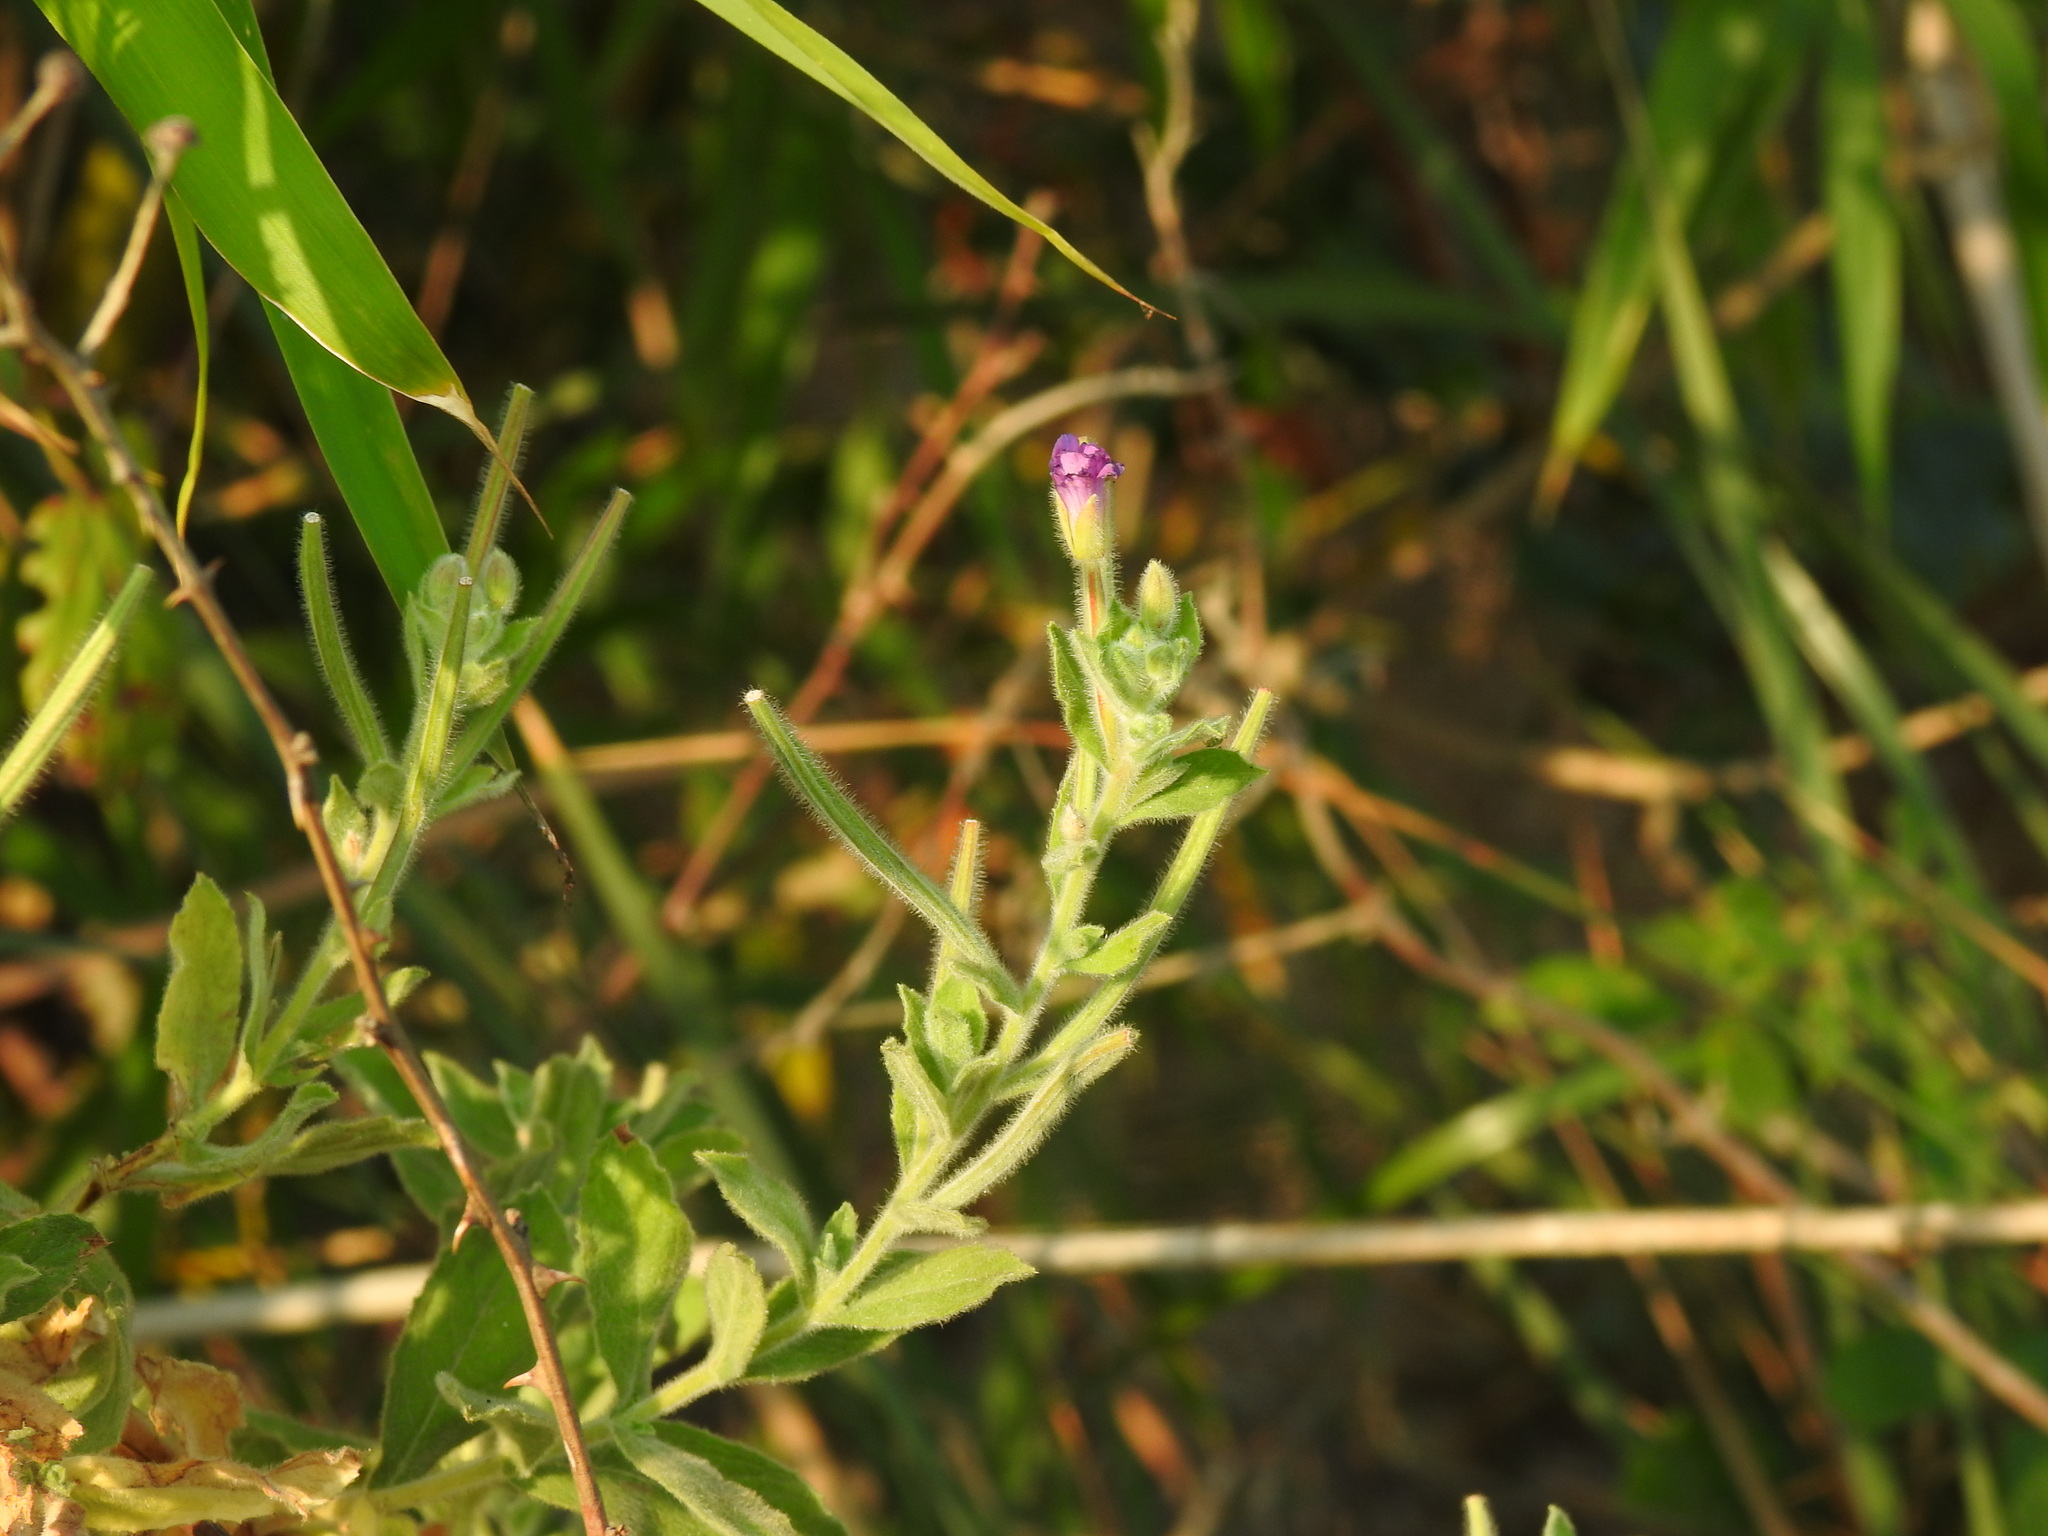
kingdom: Plantae
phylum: Tracheophyta
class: Magnoliopsida
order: Myrtales
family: Onagraceae
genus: Epilobium
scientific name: Epilobium hirsutum
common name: Great willowherb
